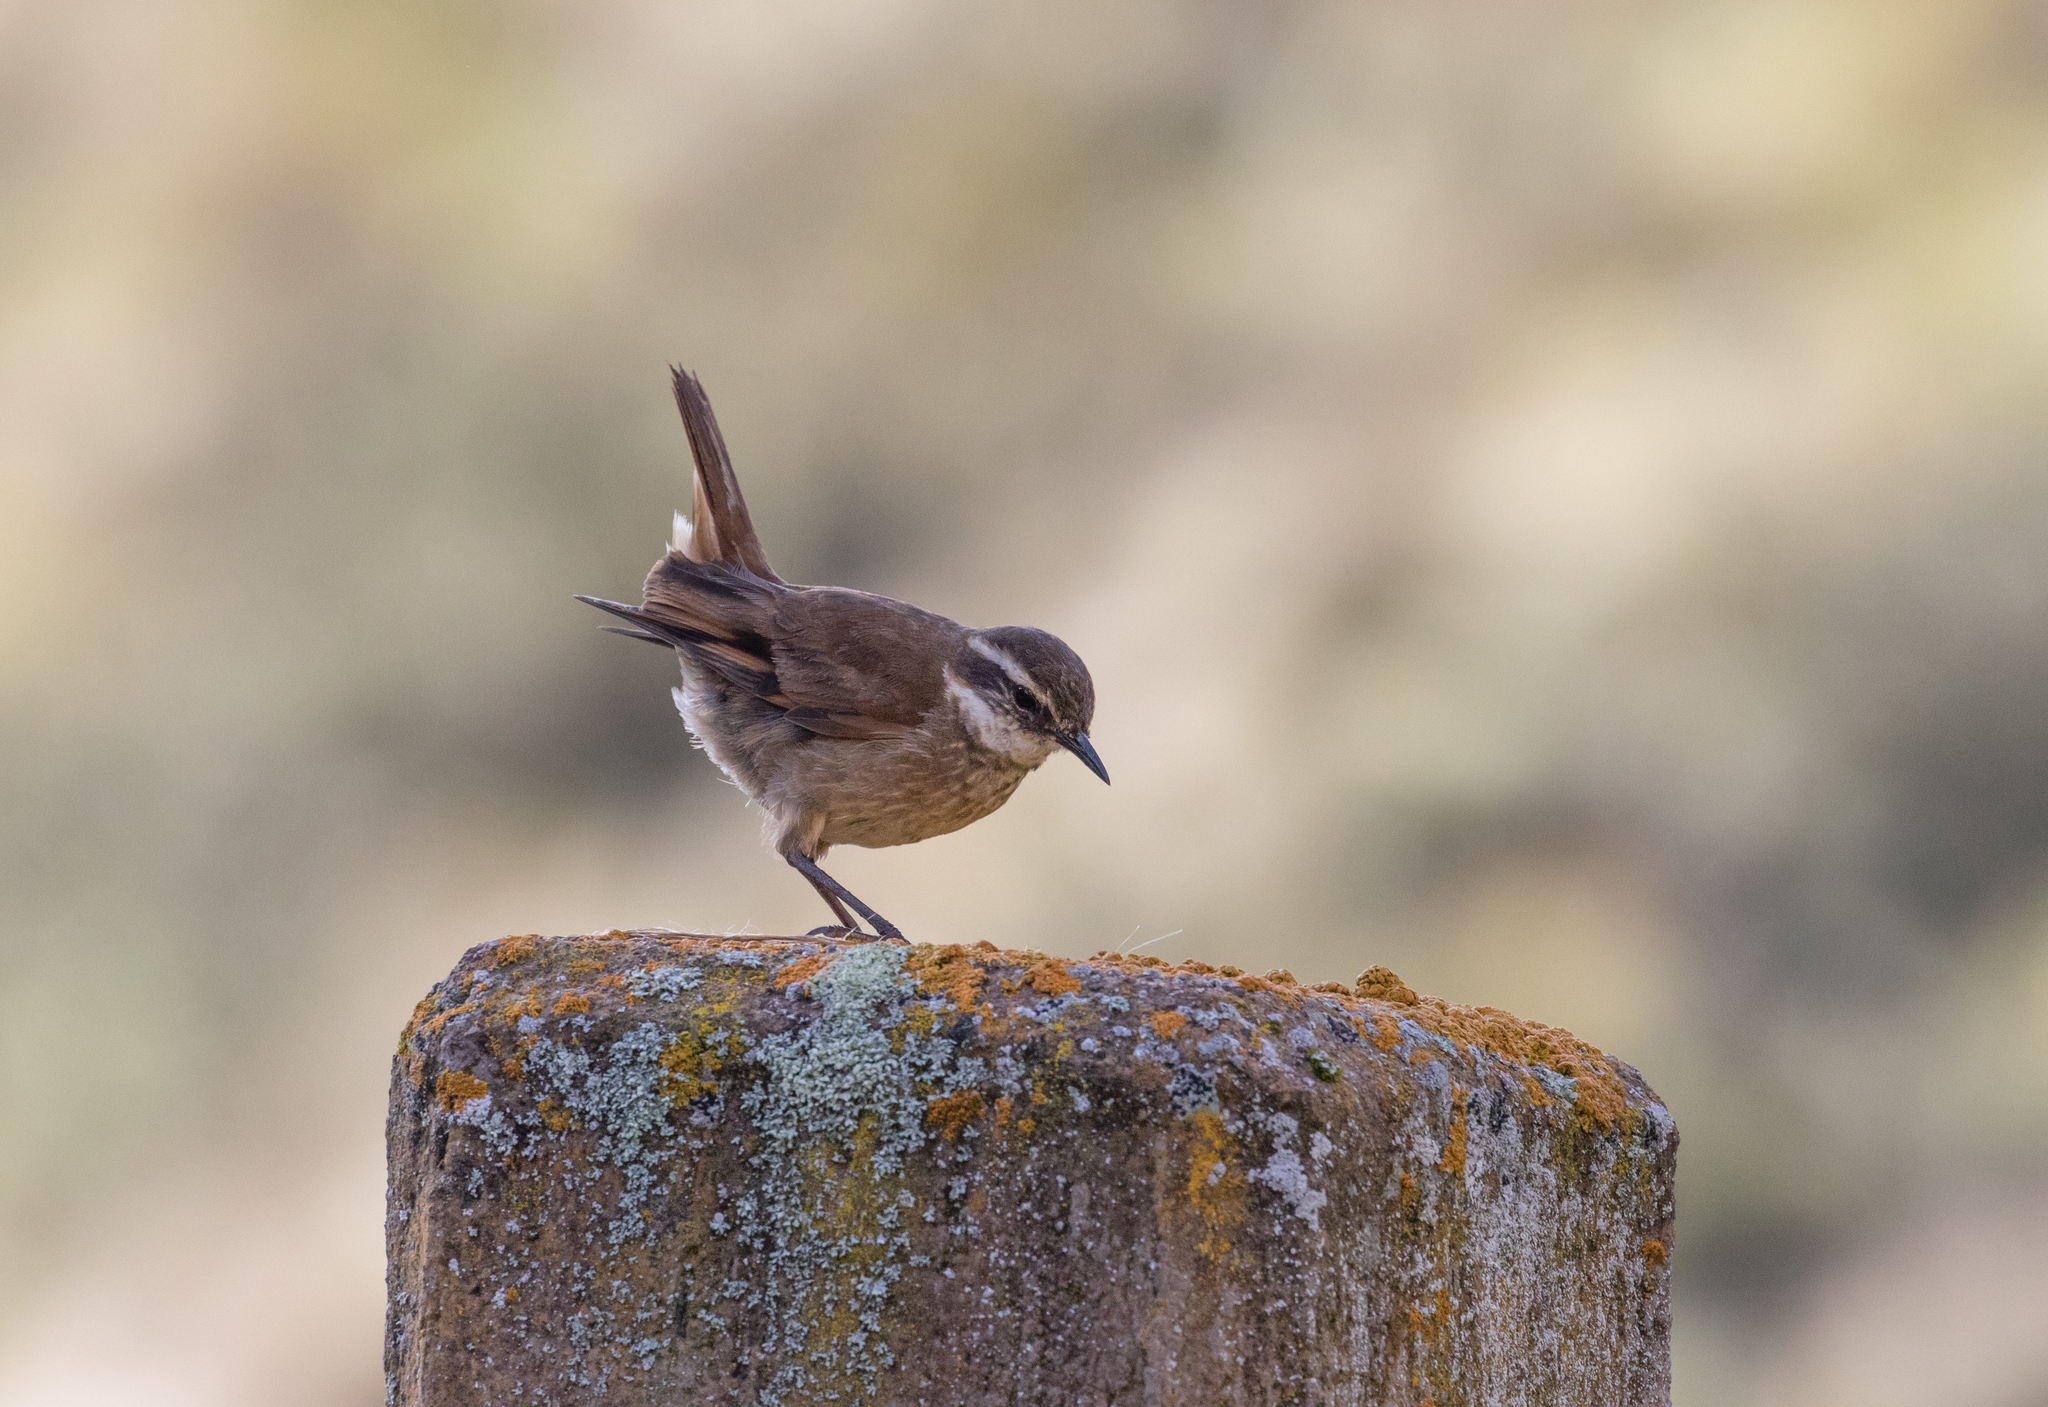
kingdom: Animalia
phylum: Chordata
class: Aves
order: Passeriformes
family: Furnariidae
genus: Cinclodes
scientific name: Cinclodes albidiventris
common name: Chestnut-winged cinclodes
